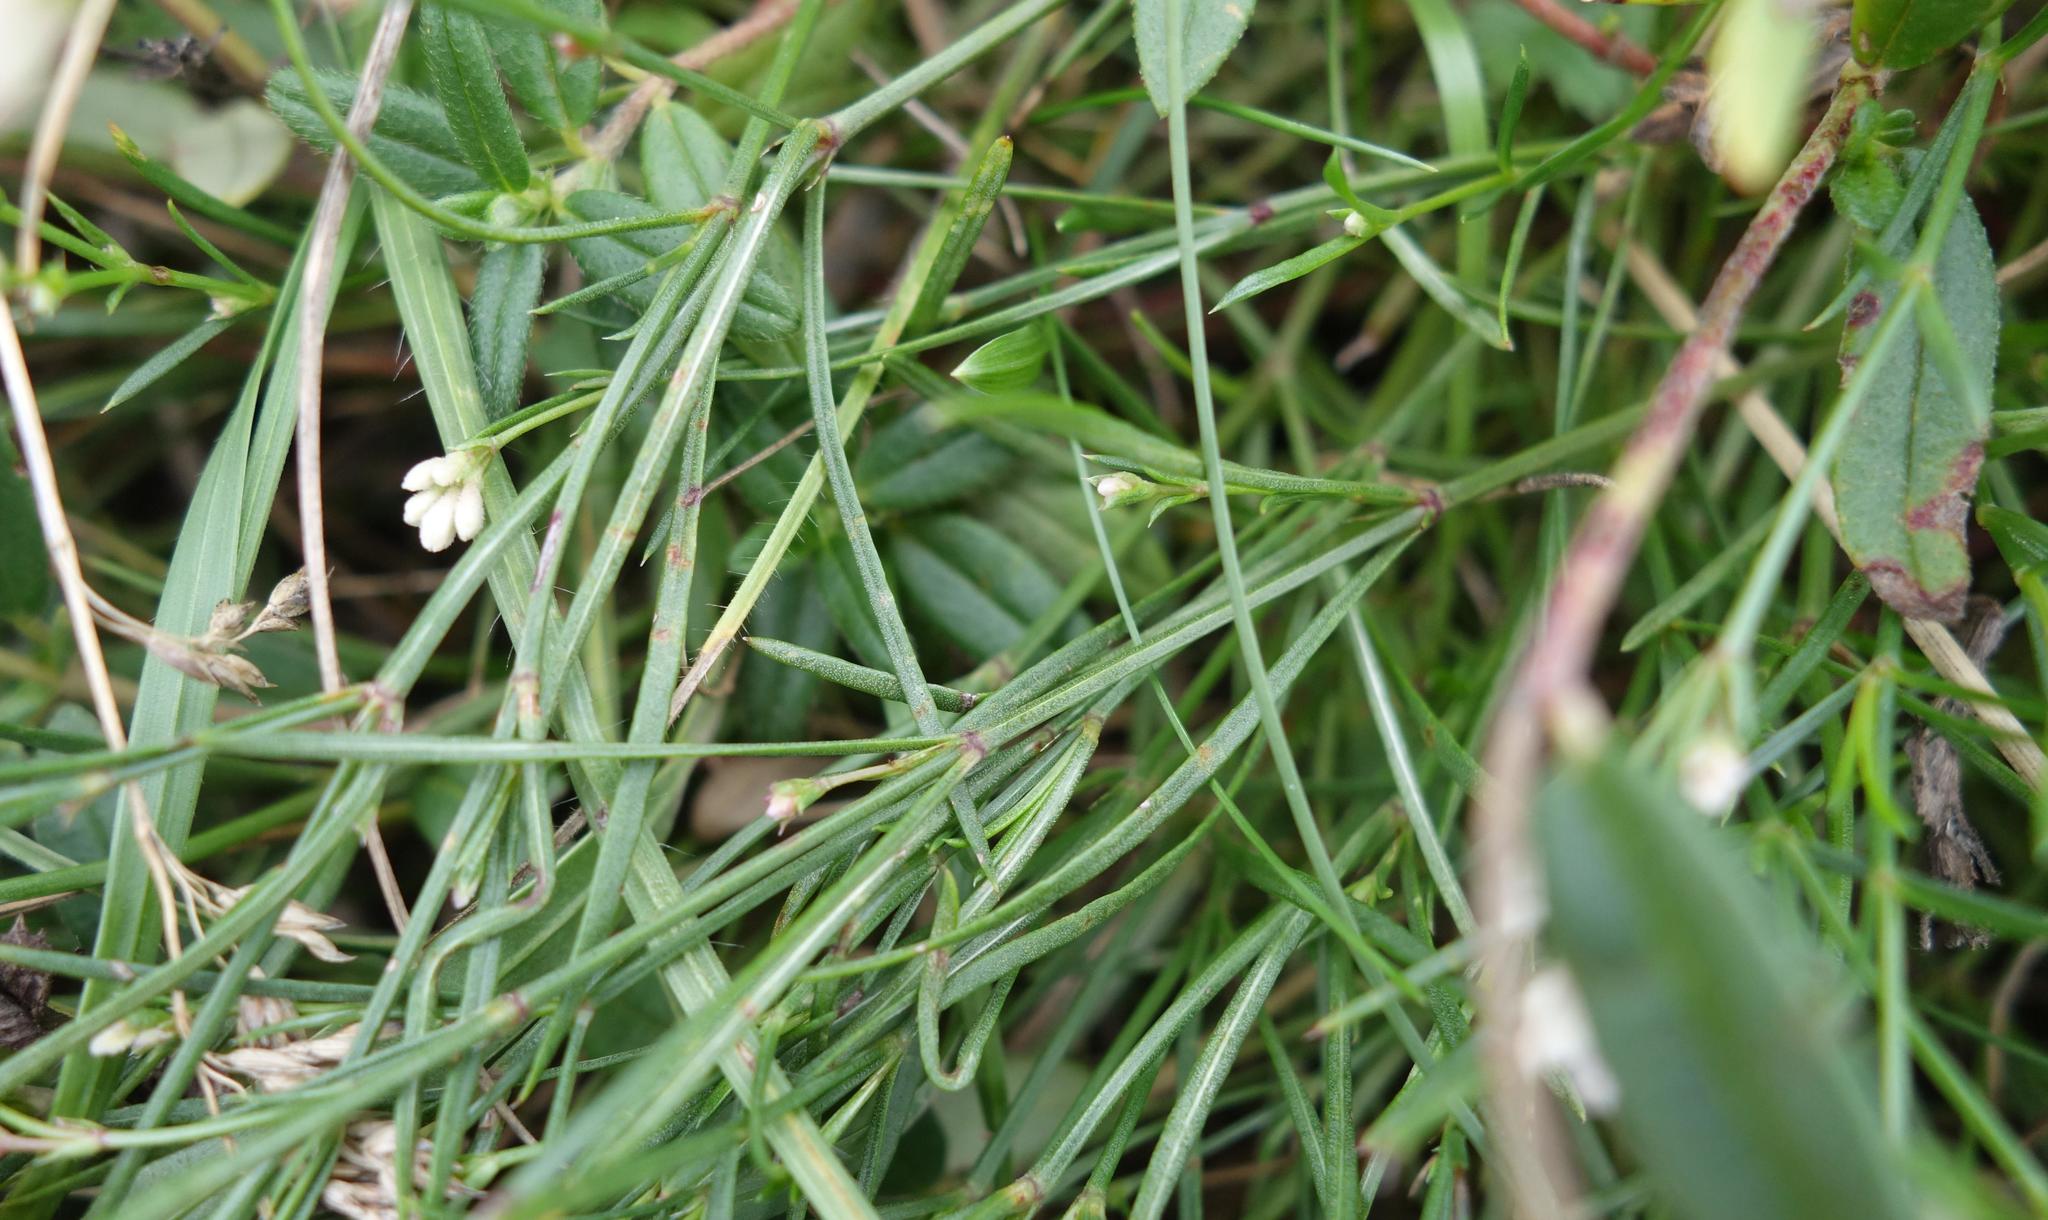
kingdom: Plantae
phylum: Tracheophyta
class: Magnoliopsida
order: Gentianales
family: Rubiaceae
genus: Cynanchica
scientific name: Cynanchica pyrenaica
